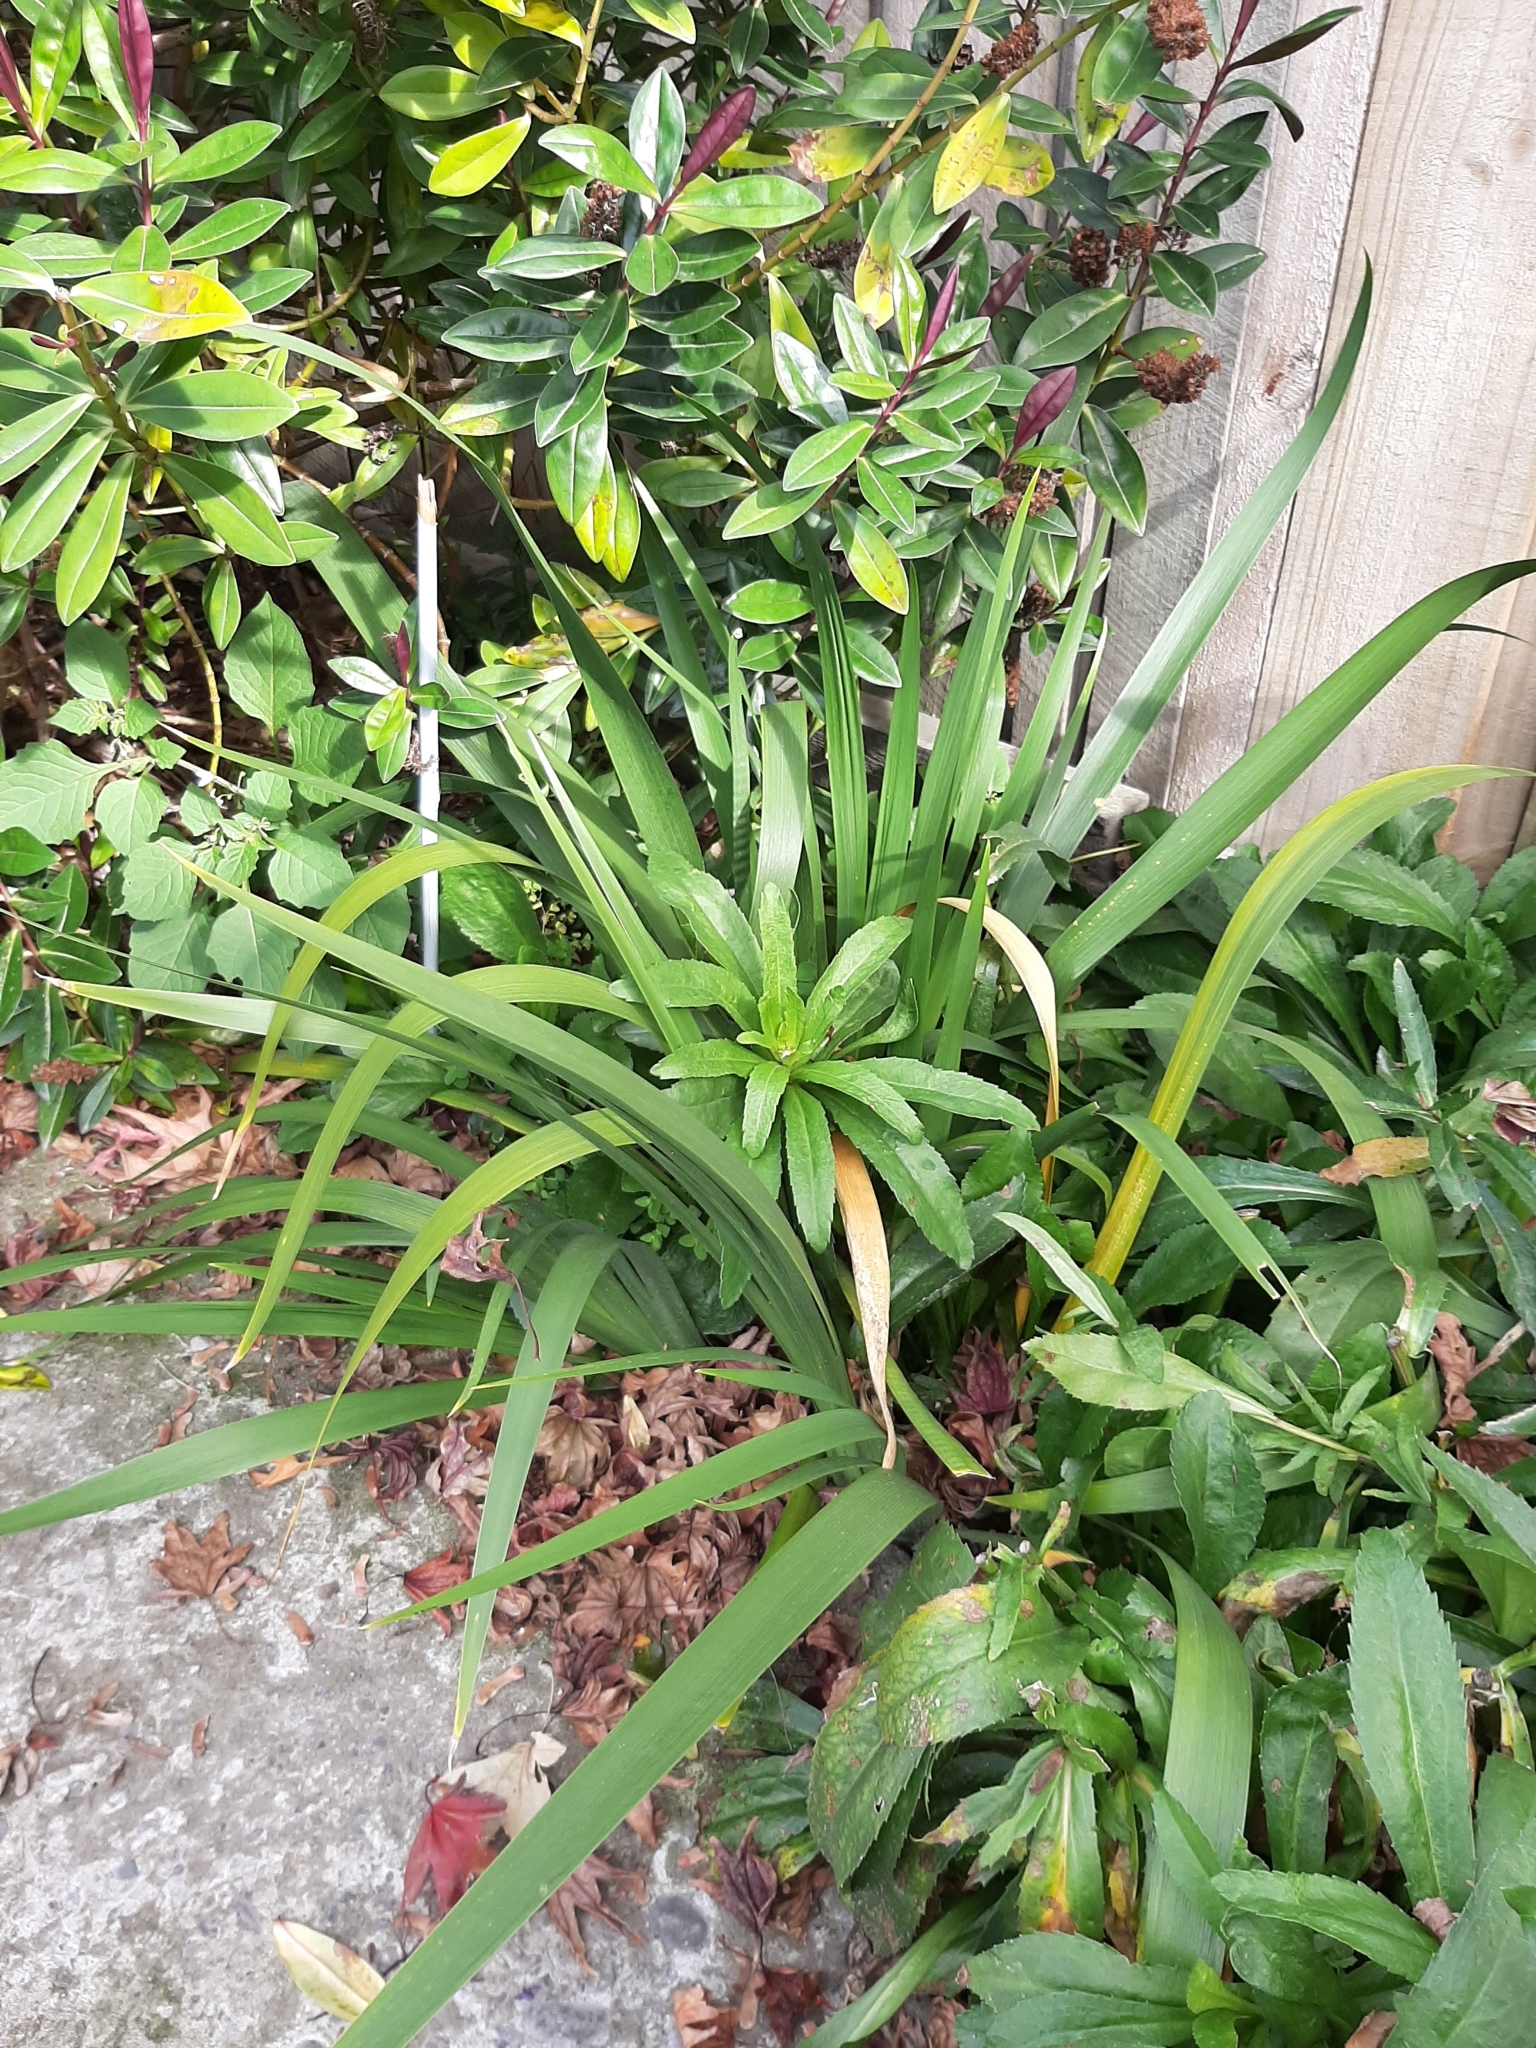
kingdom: Plantae
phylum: Tracheophyta
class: Liliopsida
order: Asparagales
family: Iridaceae
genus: Iris
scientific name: Iris foetidissima
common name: Stinking iris
